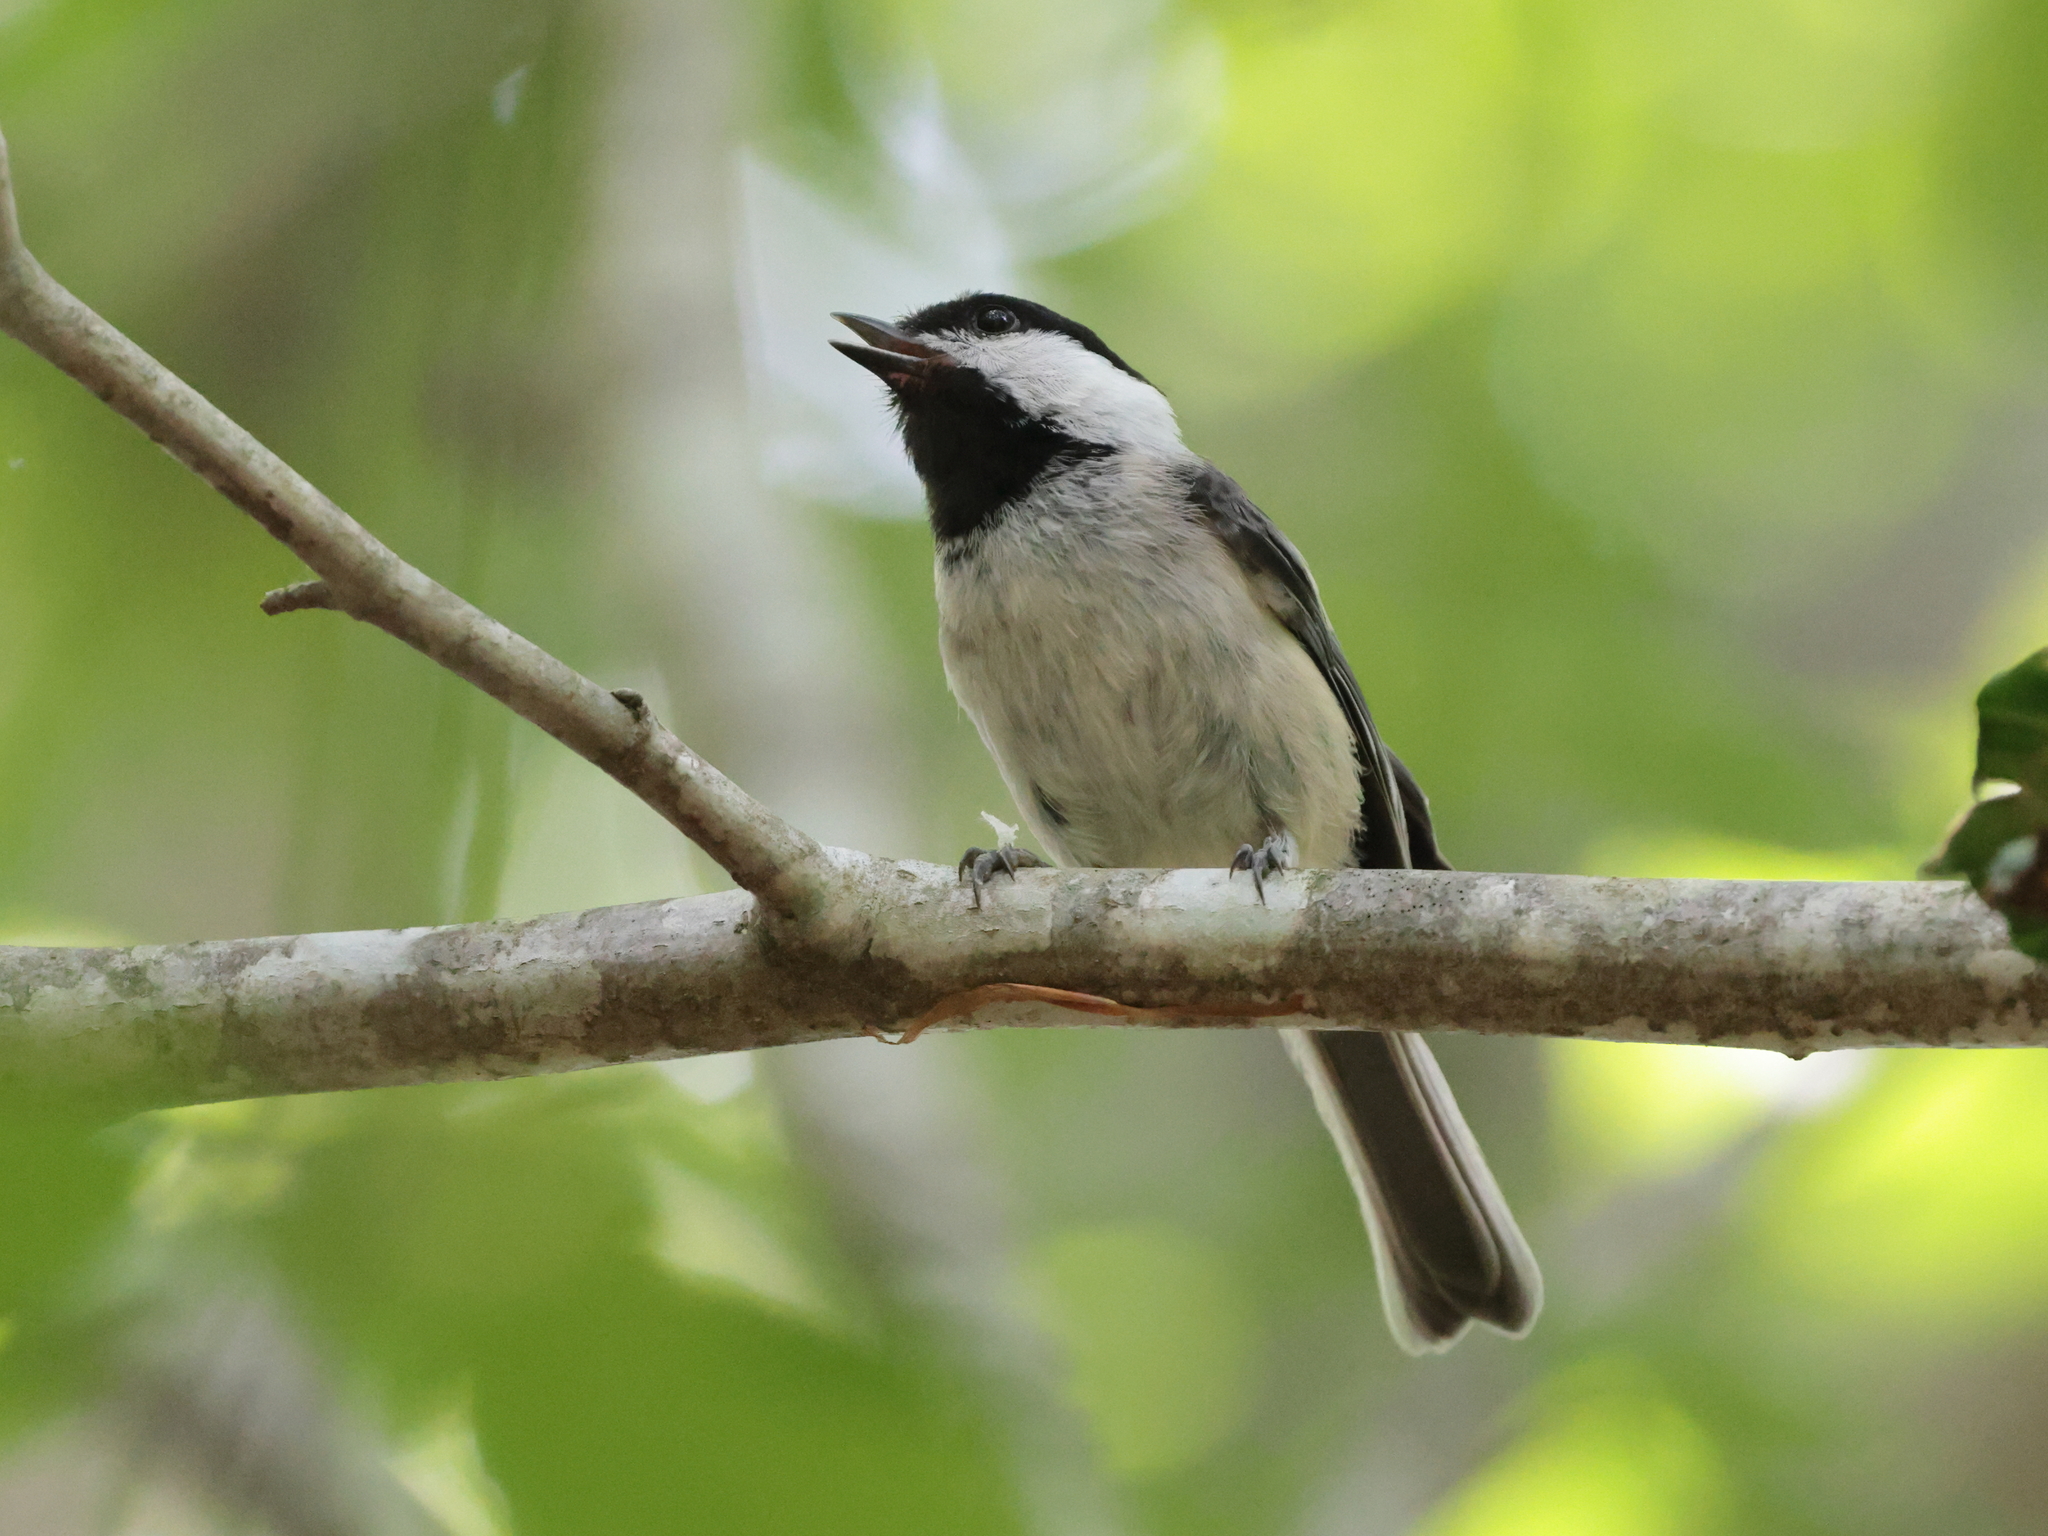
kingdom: Animalia
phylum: Chordata
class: Aves
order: Passeriformes
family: Paridae
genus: Poecile
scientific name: Poecile atricapillus
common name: Black-capped chickadee
